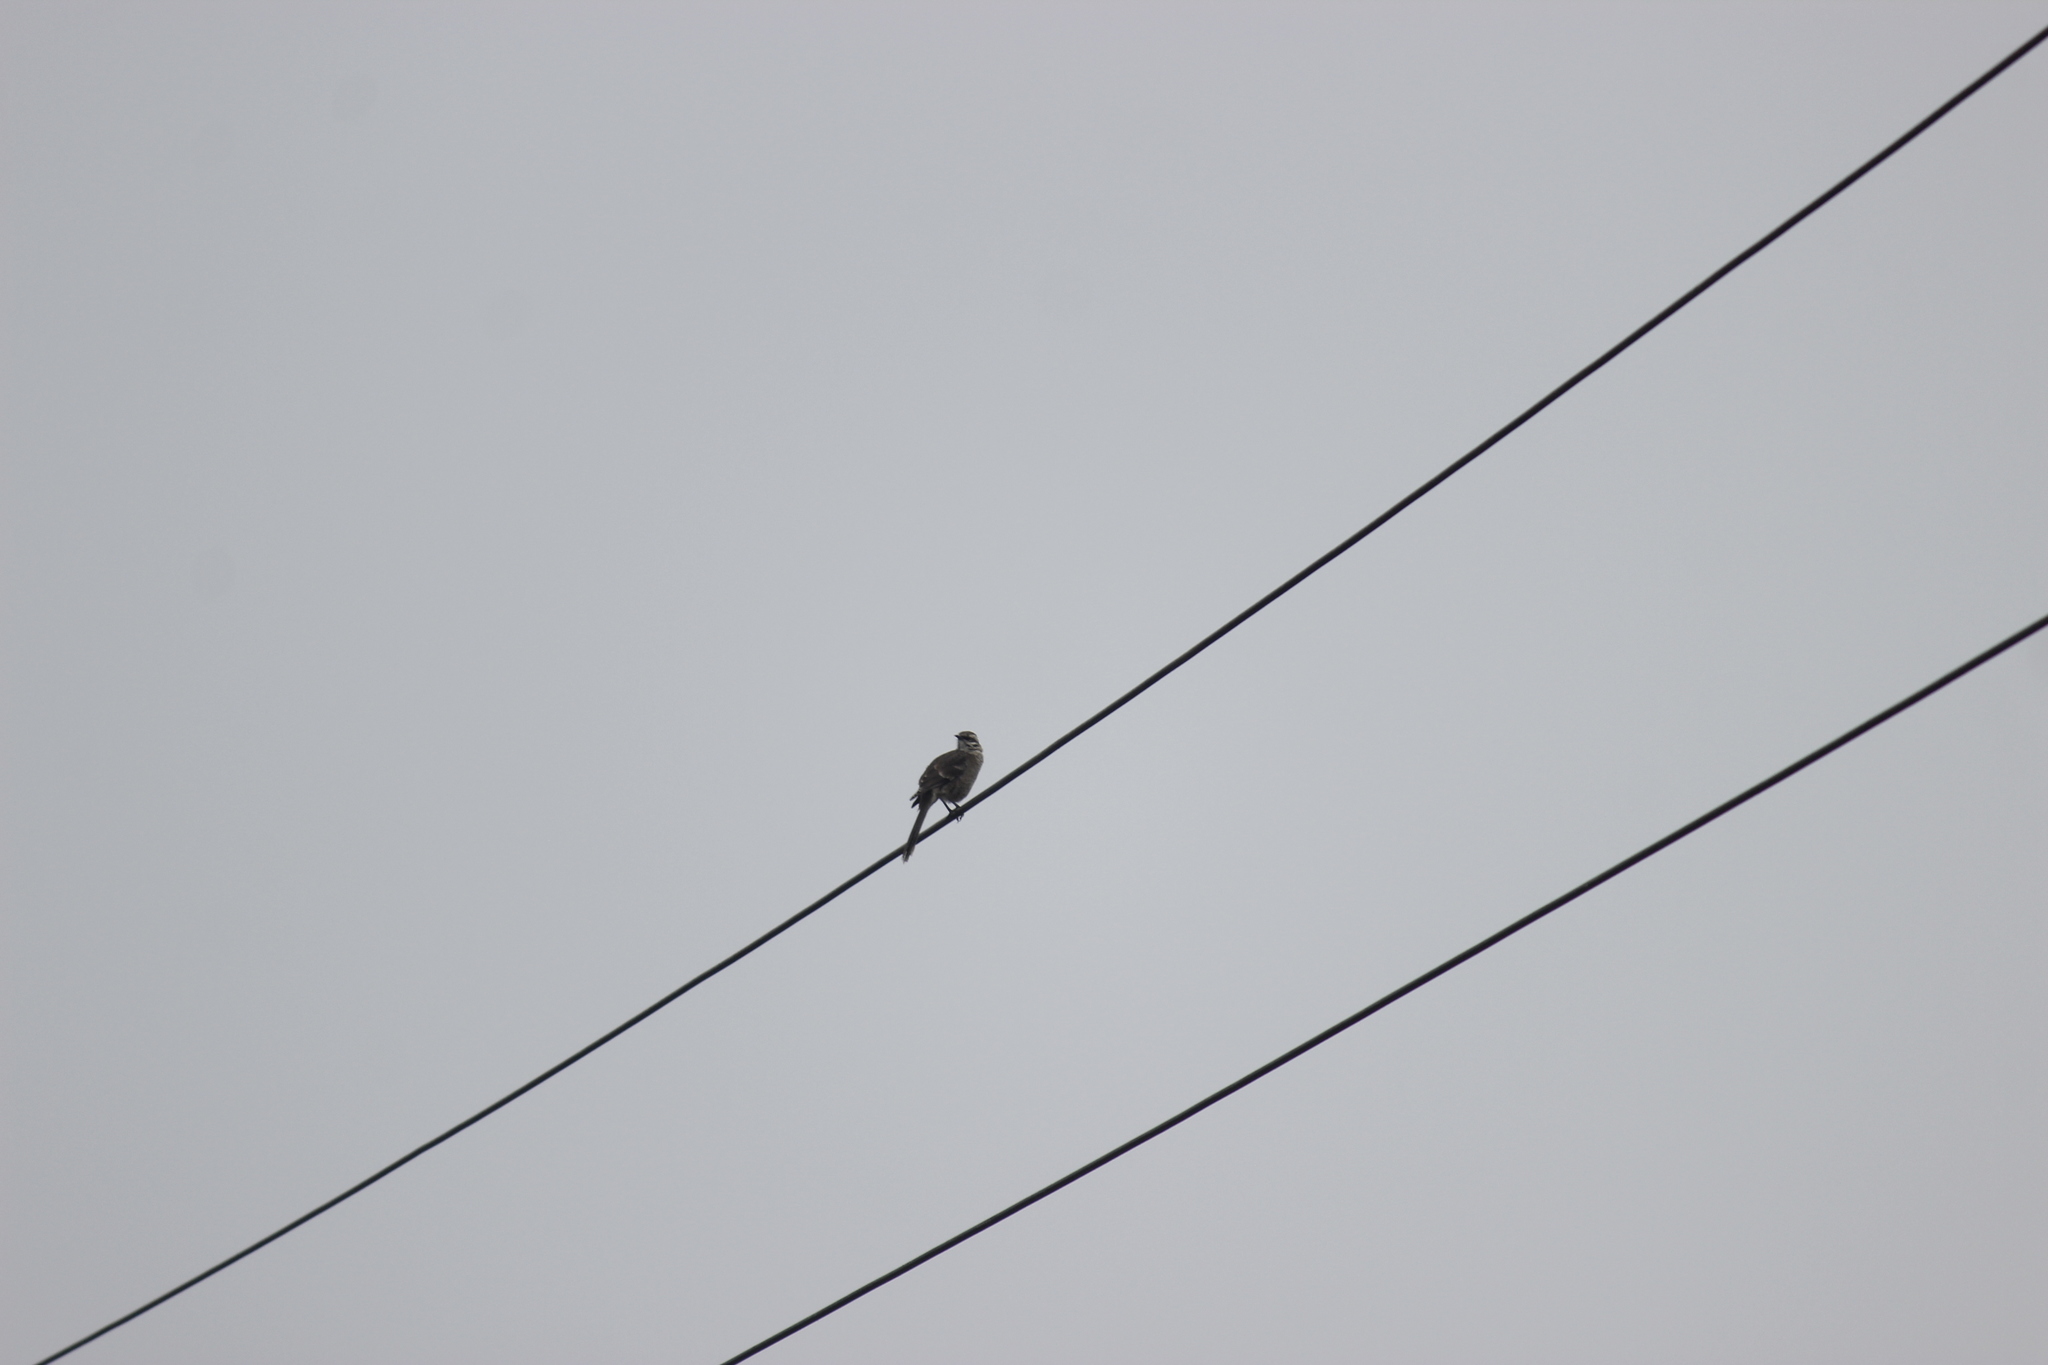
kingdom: Animalia
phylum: Chordata
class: Aves
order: Passeriformes
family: Mimidae
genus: Mimus
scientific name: Mimus longicaudatus
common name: Long-tailed mockingbird
